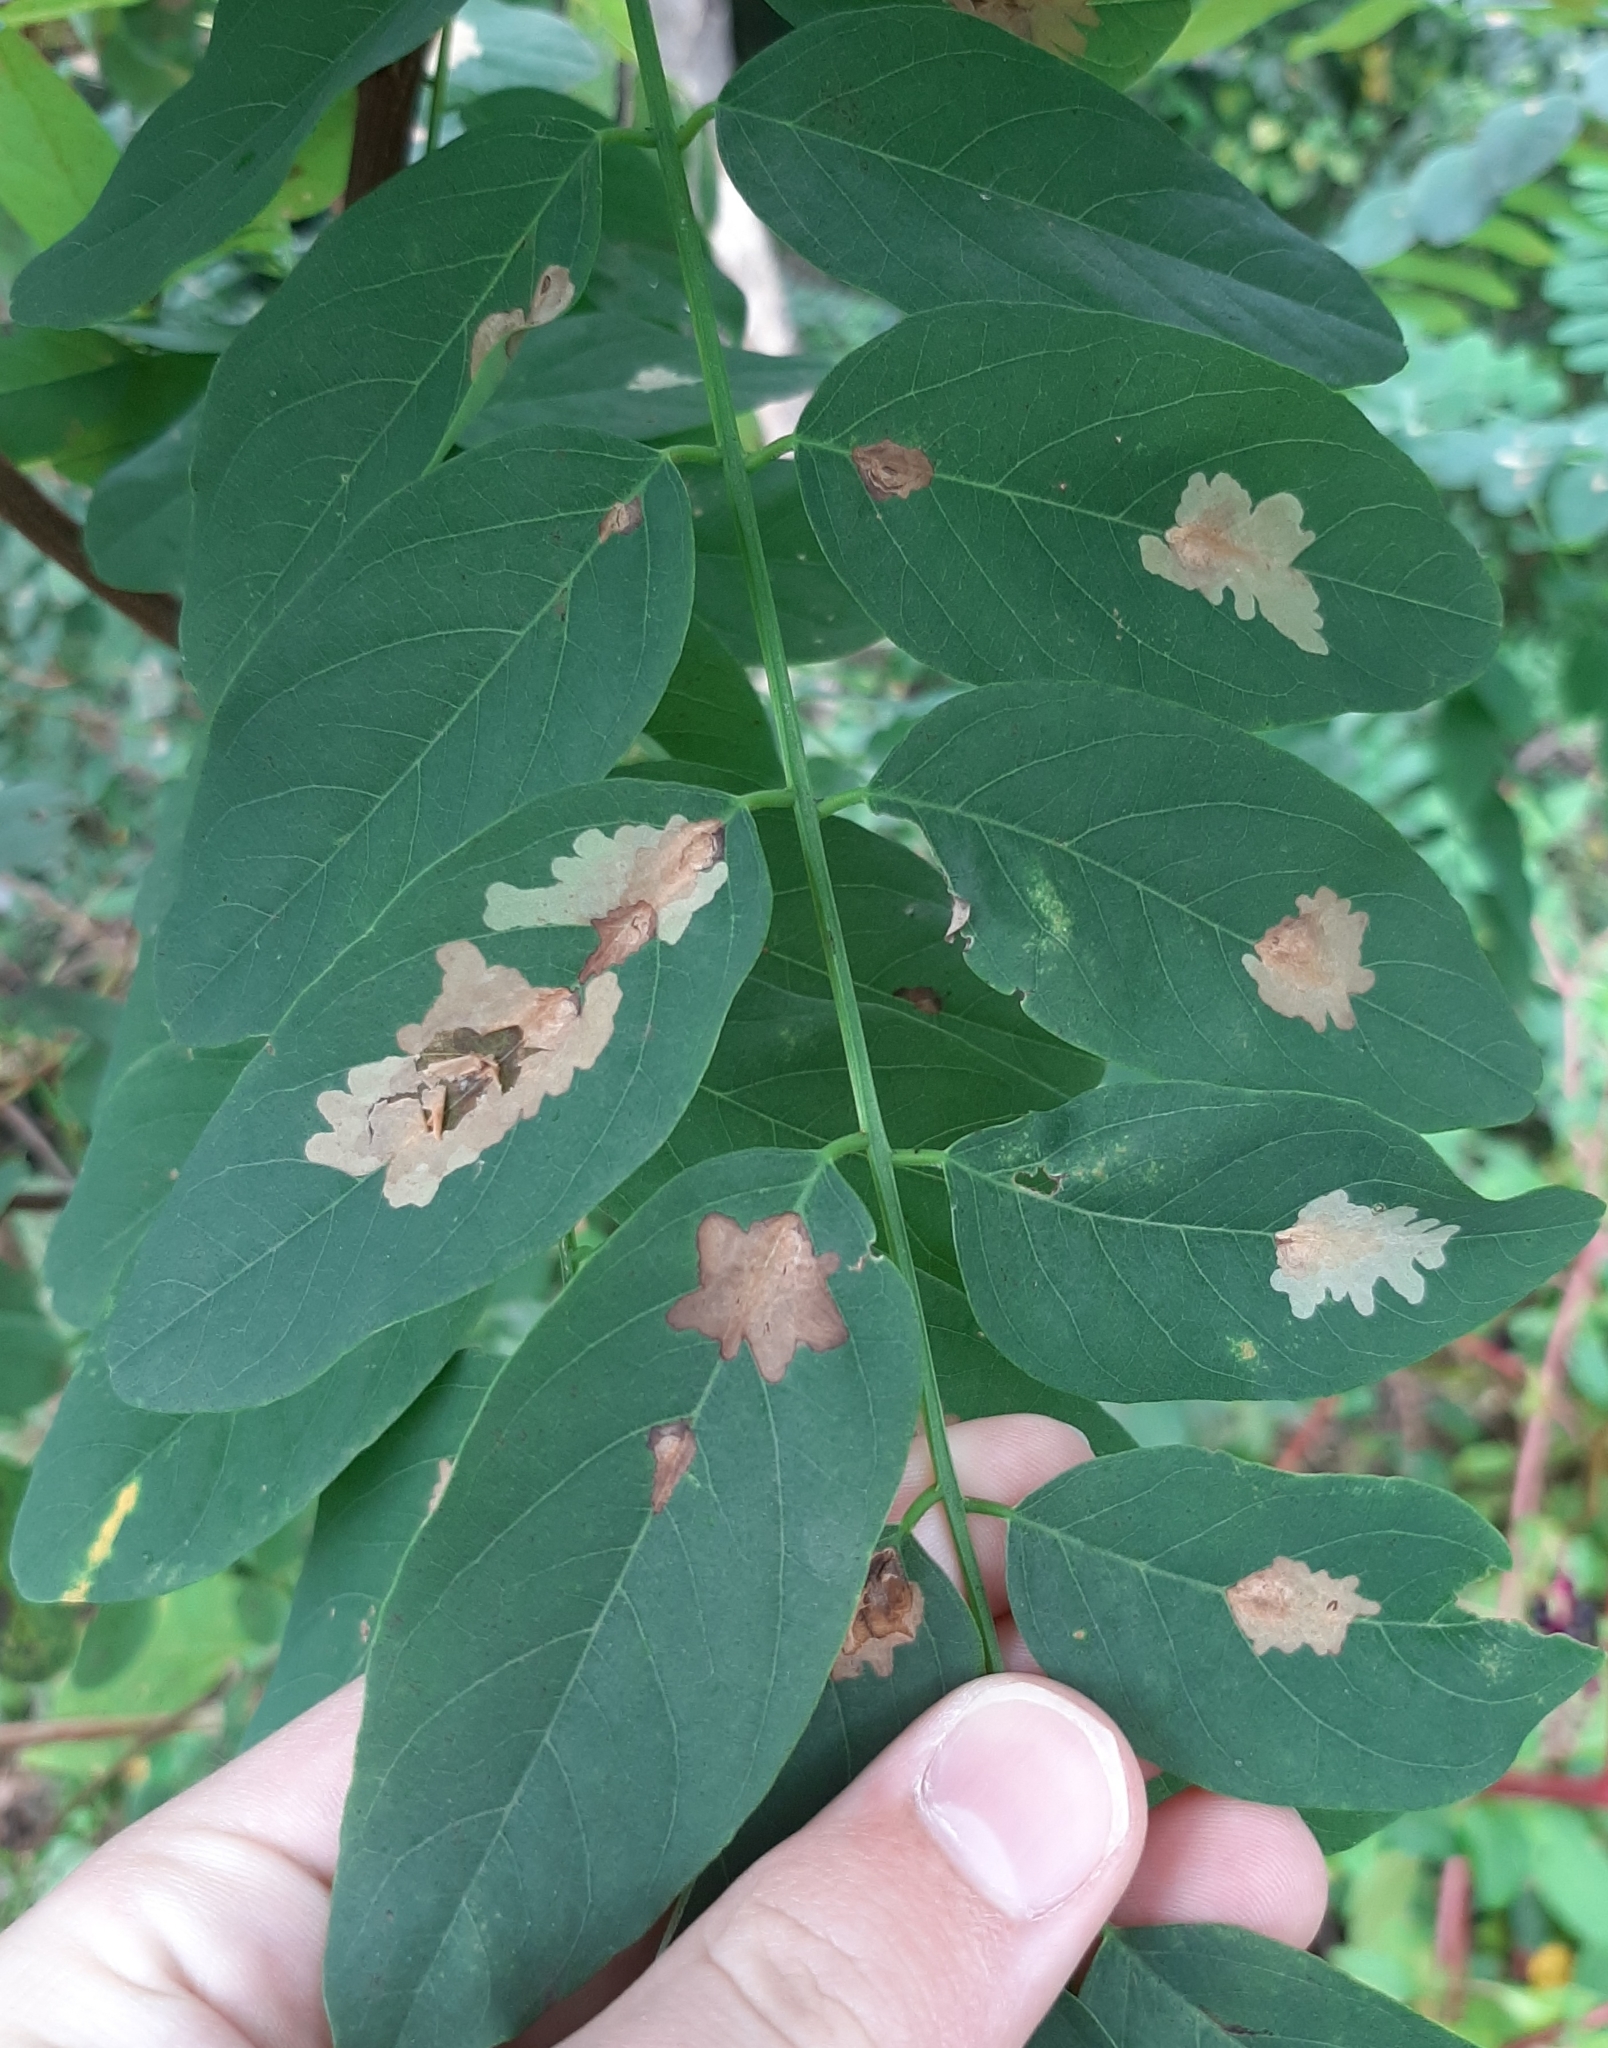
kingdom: Animalia
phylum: Arthropoda
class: Insecta
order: Lepidoptera
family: Gracillariidae
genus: Parectopa
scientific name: Parectopa robiniella
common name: Locust digitate leafminer
